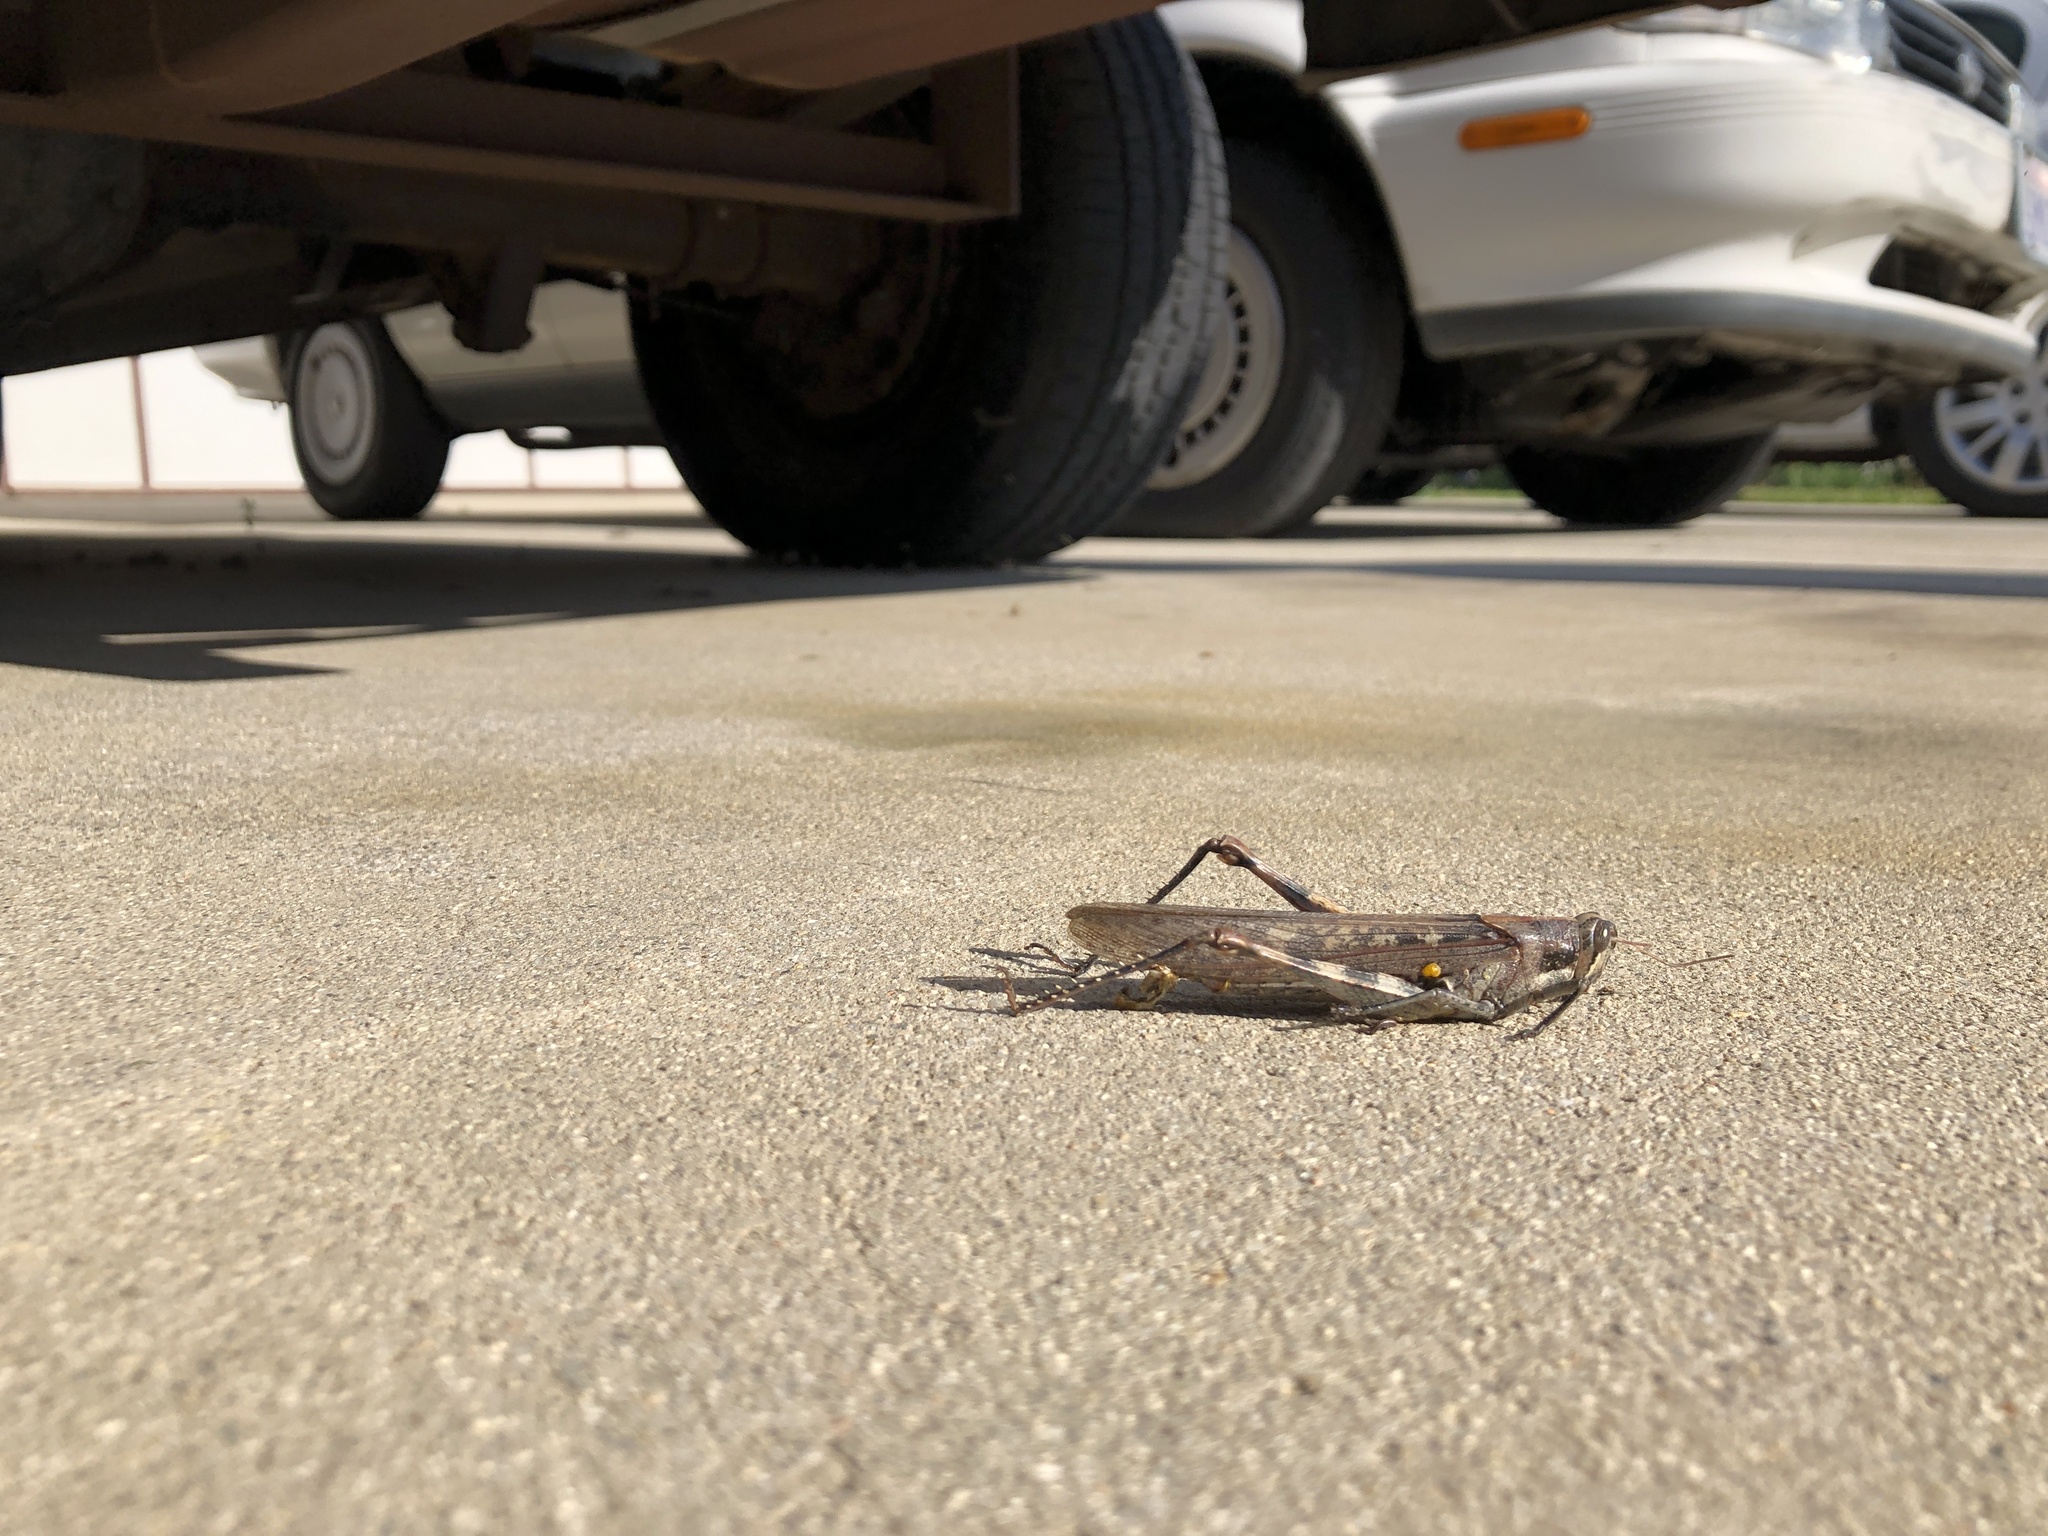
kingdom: Animalia
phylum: Arthropoda
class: Insecta
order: Orthoptera
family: Acrididae
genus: Schistocerca
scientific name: Schistocerca nitens
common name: Vagrant grasshopper
